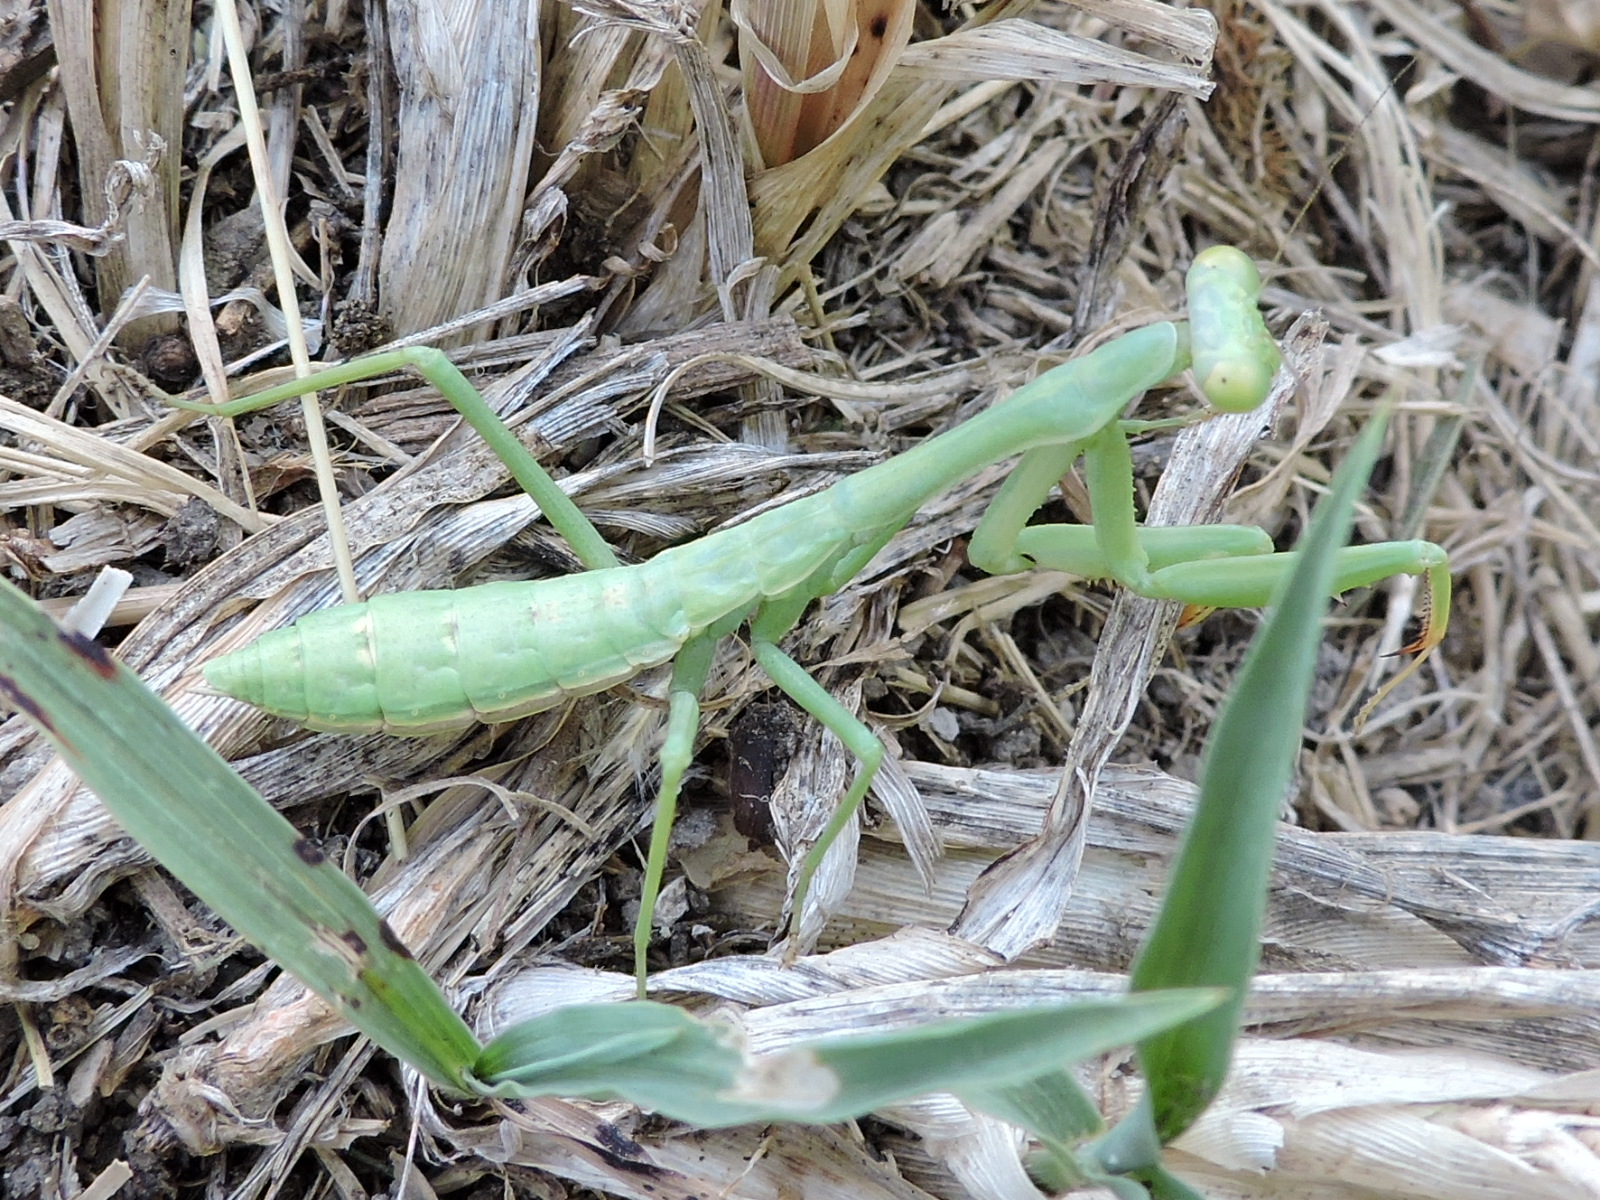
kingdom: Animalia
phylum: Arthropoda
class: Insecta
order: Mantodea
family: Mantidae
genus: Stagmomantis
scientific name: Stagmomantis carolina
